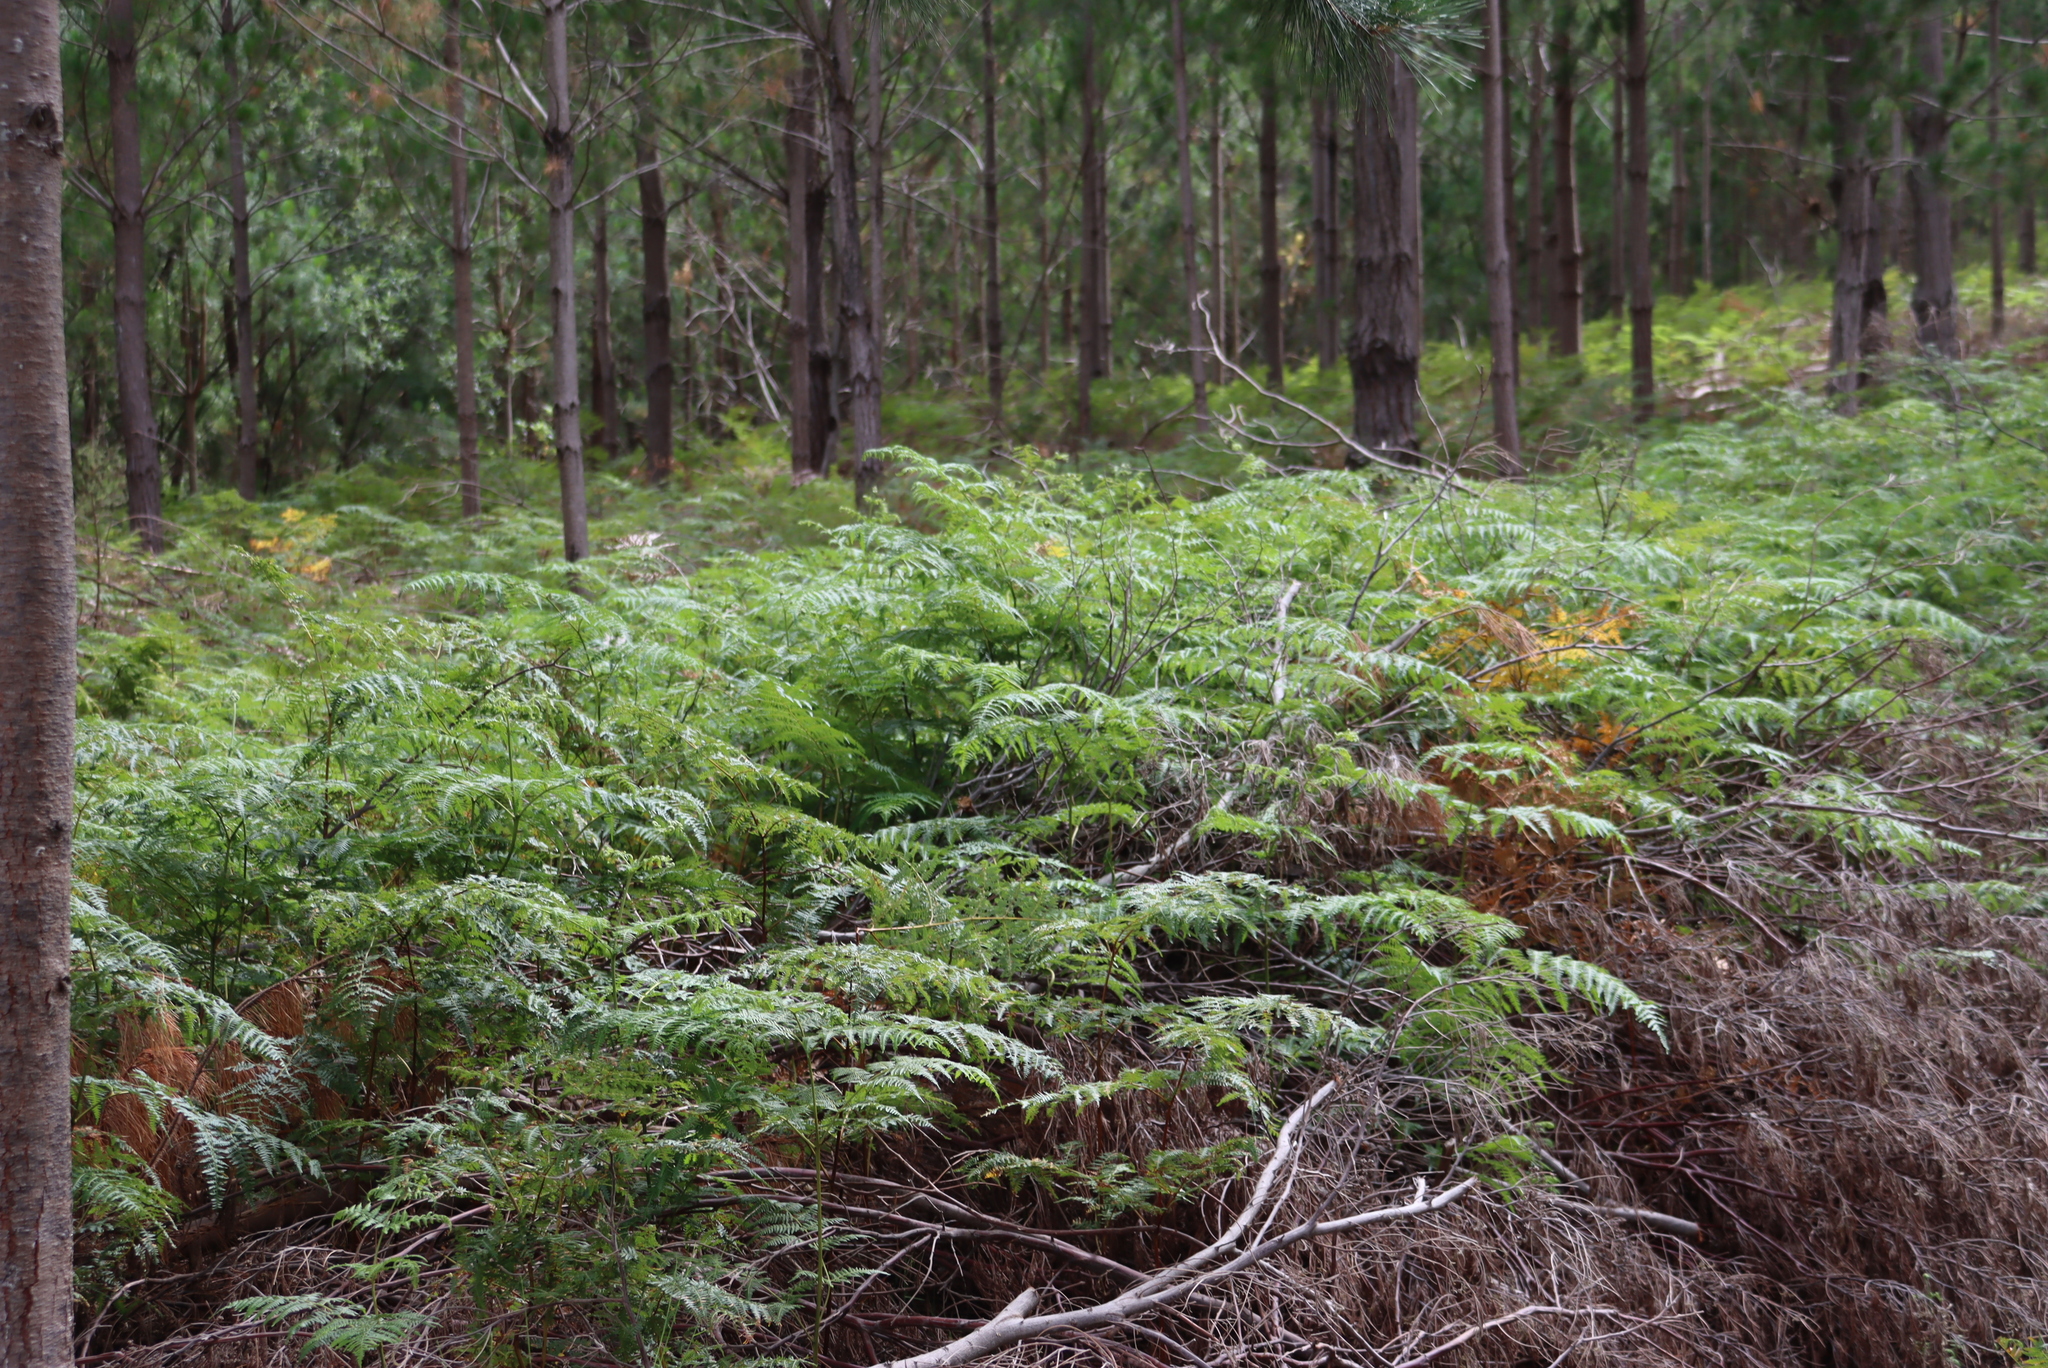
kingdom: Plantae
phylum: Tracheophyta
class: Polypodiopsida
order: Polypodiales
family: Dennstaedtiaceae
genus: Pteridium
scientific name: Pteridium aquilinum
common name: Bracken
